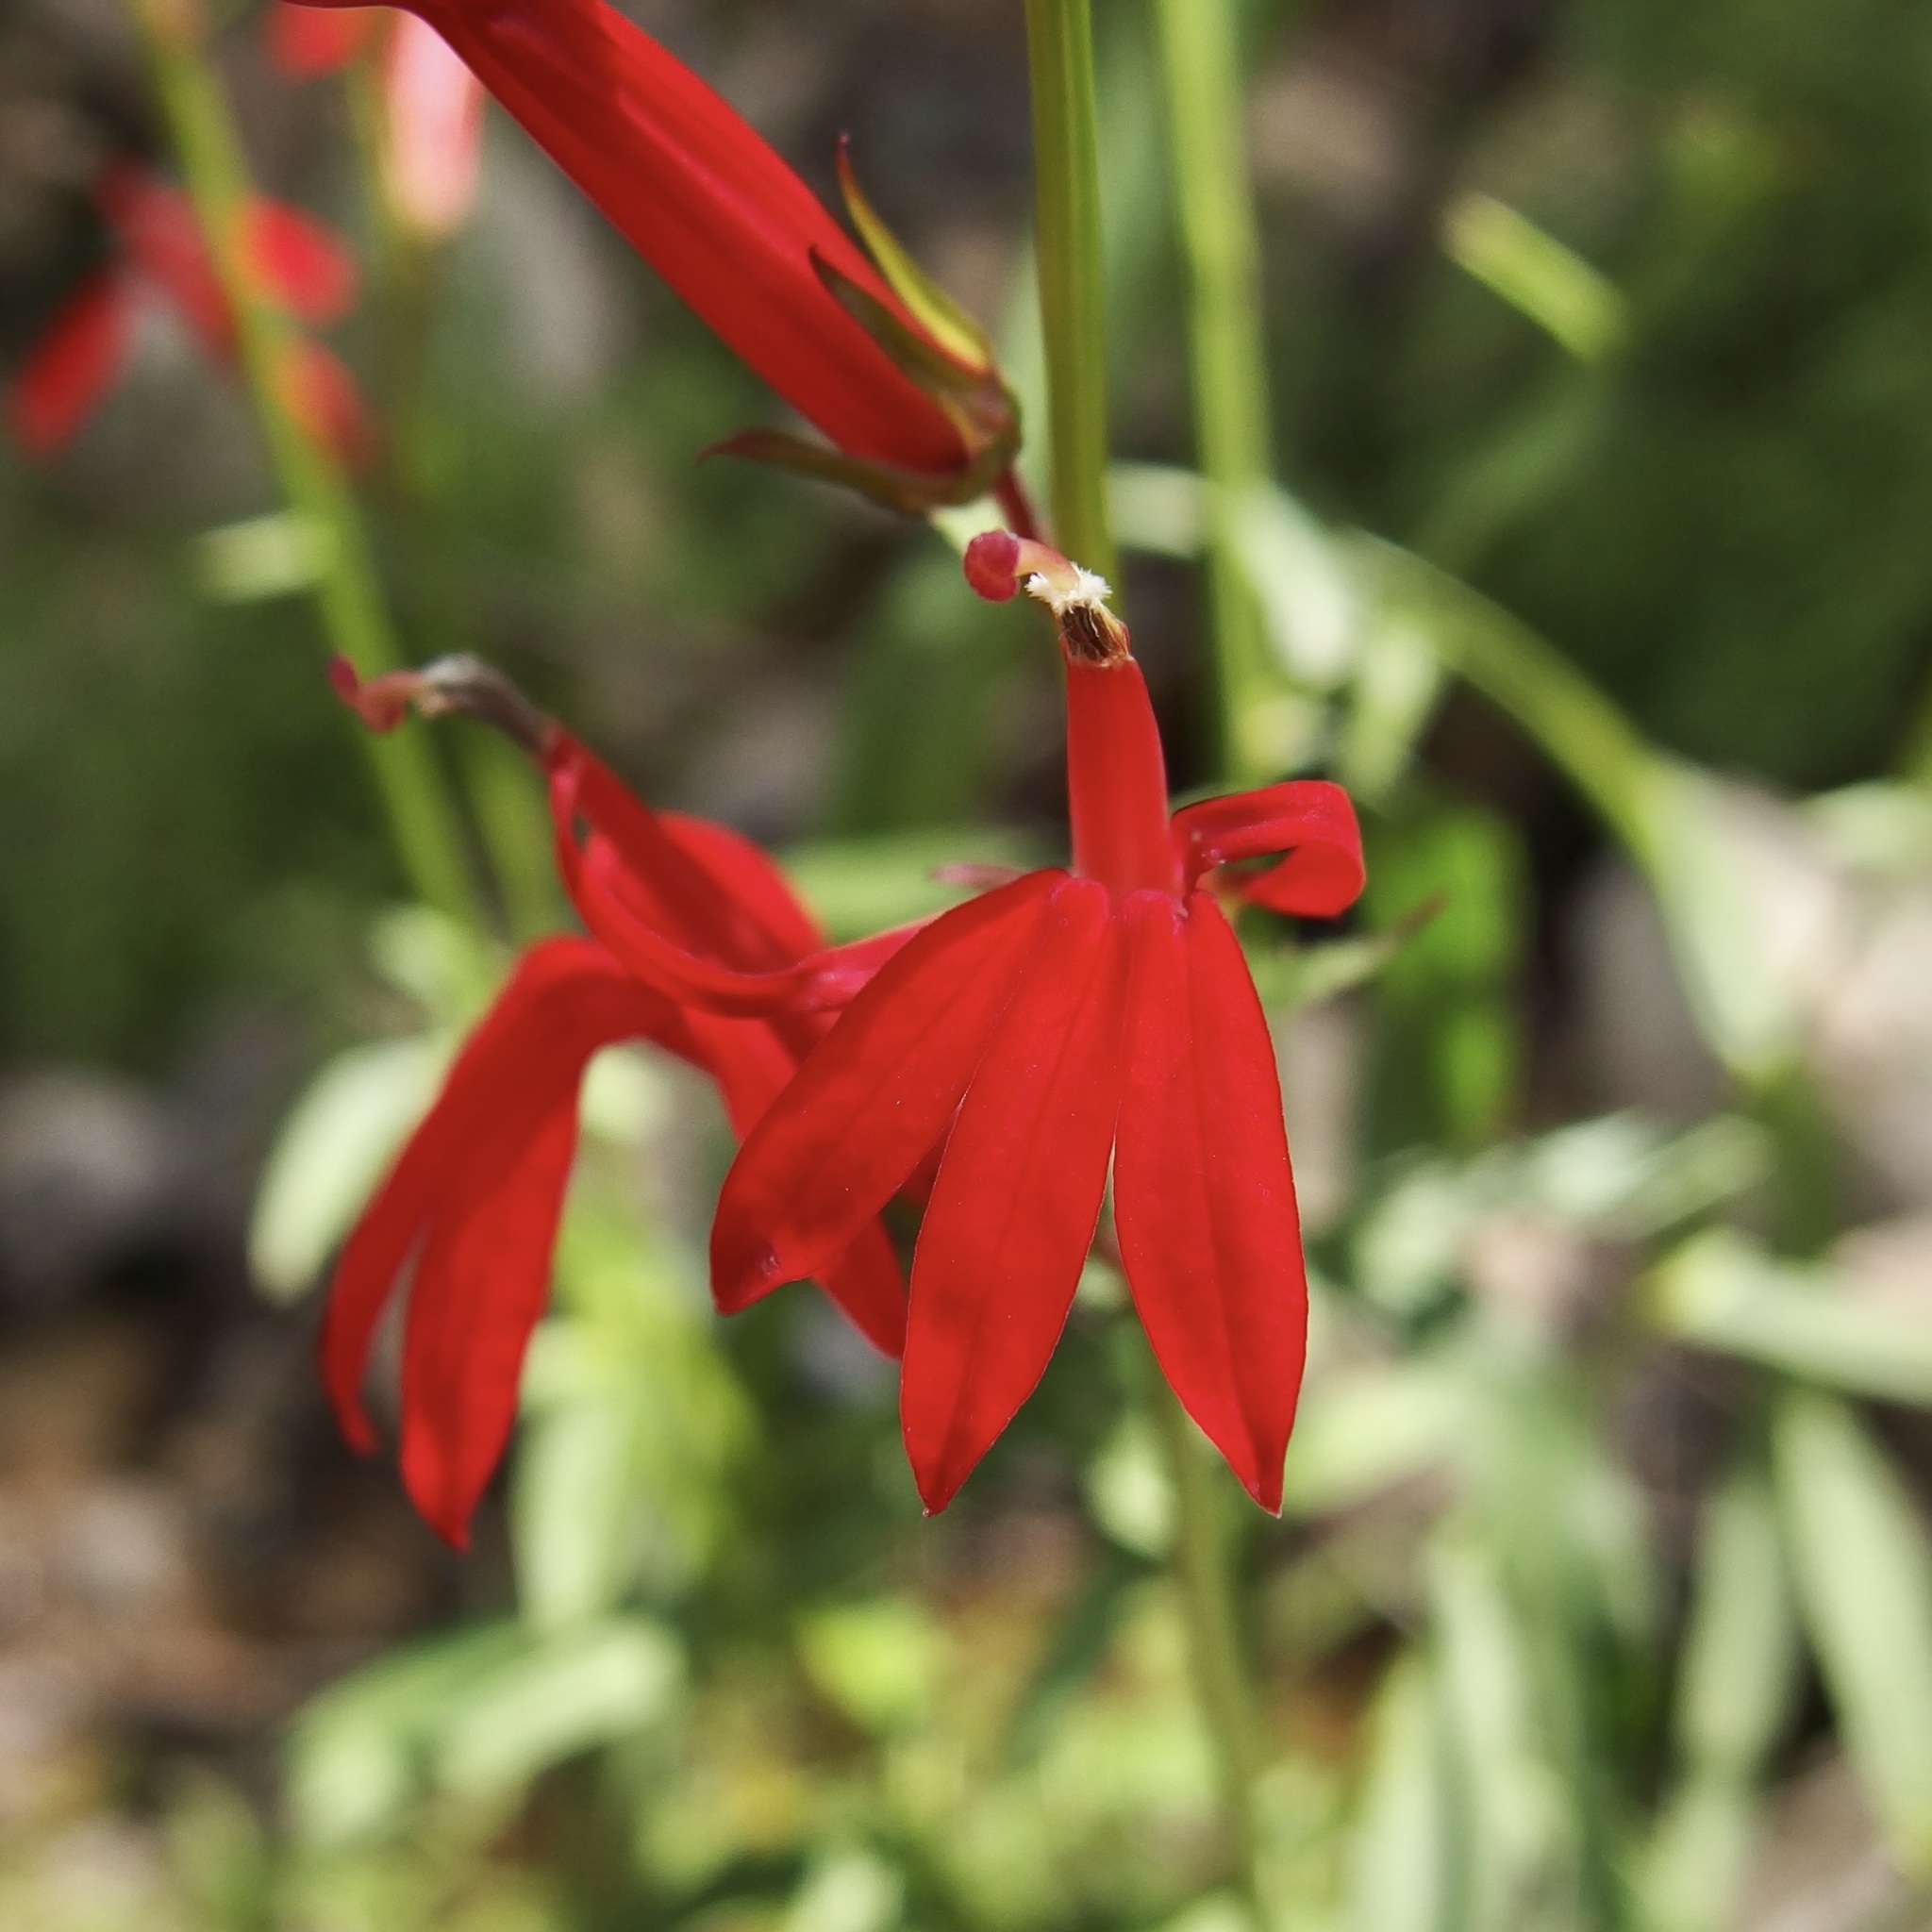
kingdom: Plantae
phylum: Tracheophyta
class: Magnoliopsida
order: Asterales
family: Campanulaceae
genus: Lobelia
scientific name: Lobelia cardinalis
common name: Cardinal flower
